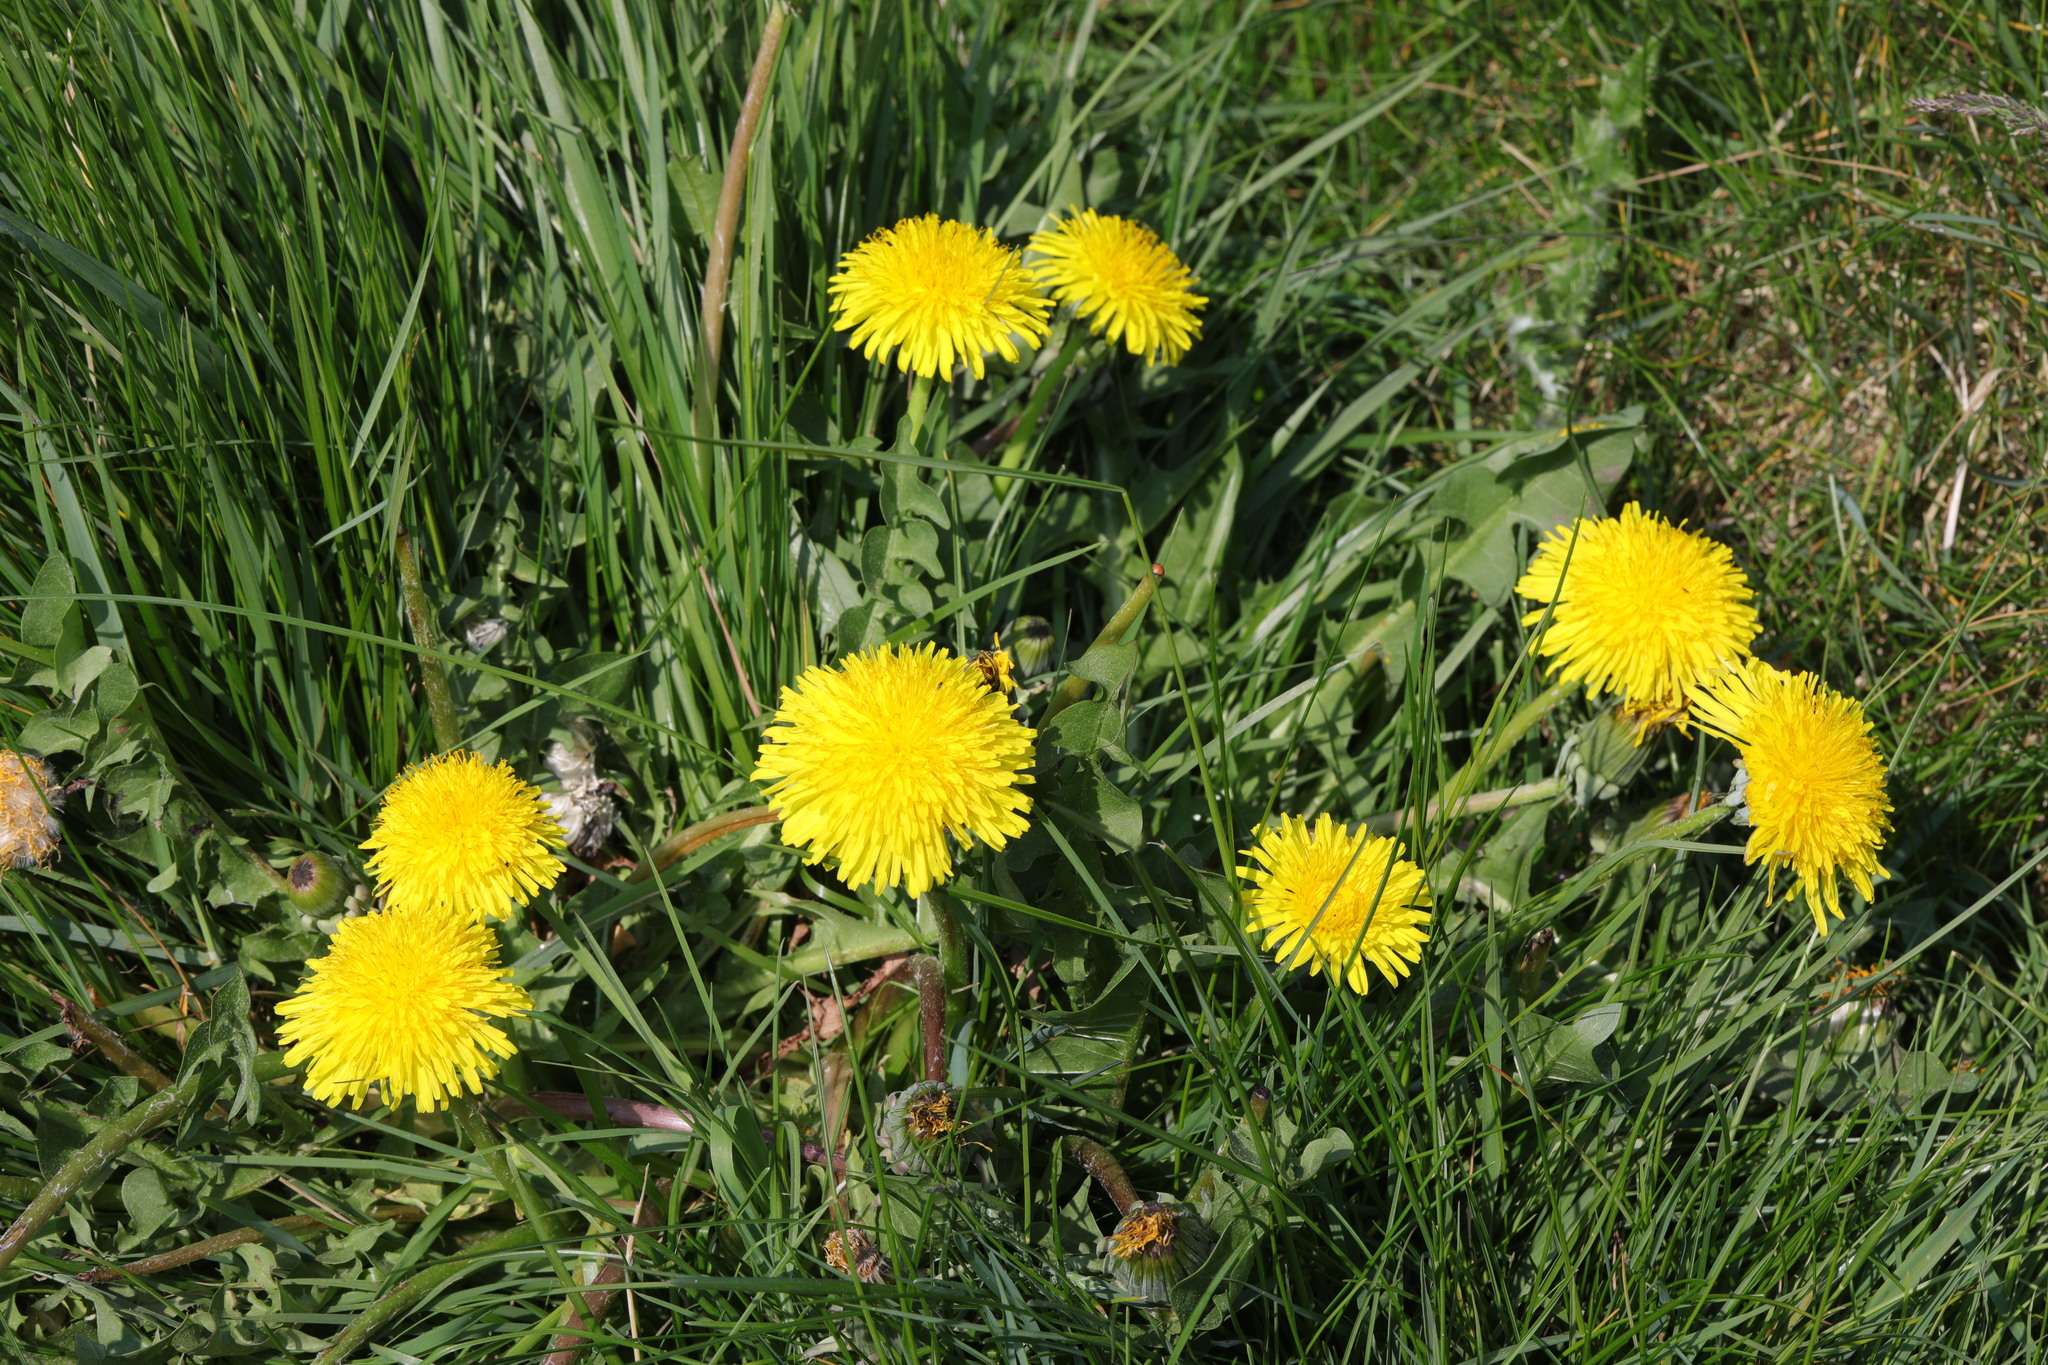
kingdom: Plantae
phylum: Tracheophyta
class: Magnoliopsida
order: Asterales
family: Asteraceae
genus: Taraxacum
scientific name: Taraxacum officinale
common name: Common dandelion
